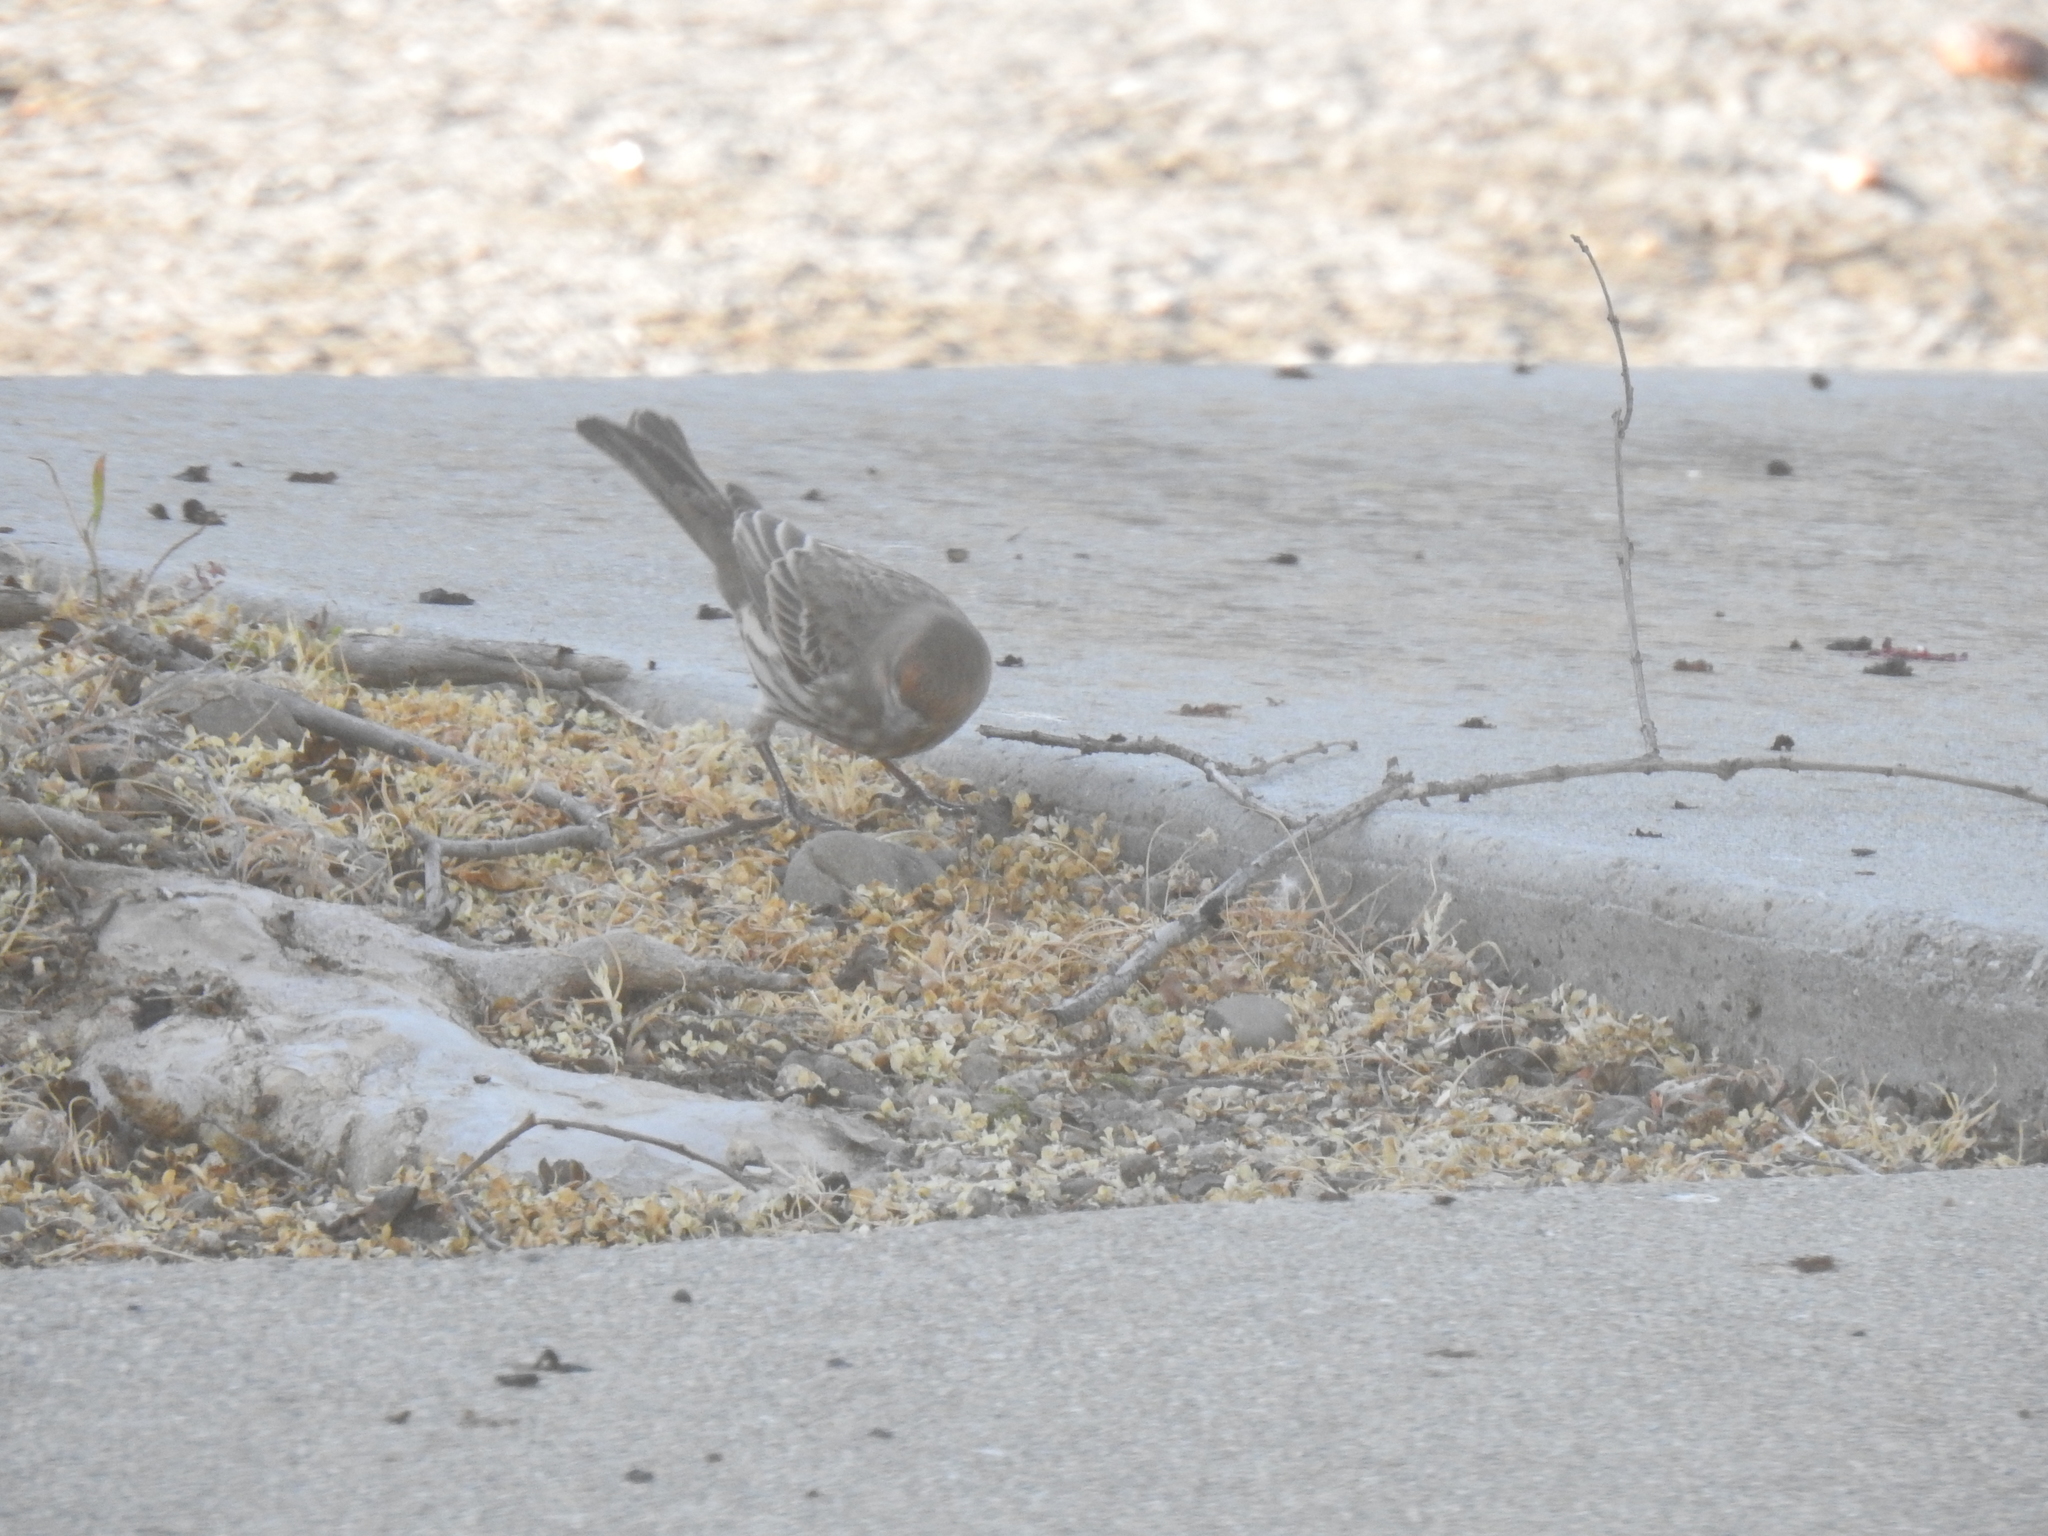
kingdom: Animalia
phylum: Chordata
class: Aves
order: Passeriformes
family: Fringillidae
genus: Haemorhous
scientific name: Haemorhous mexicanus
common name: House finch
